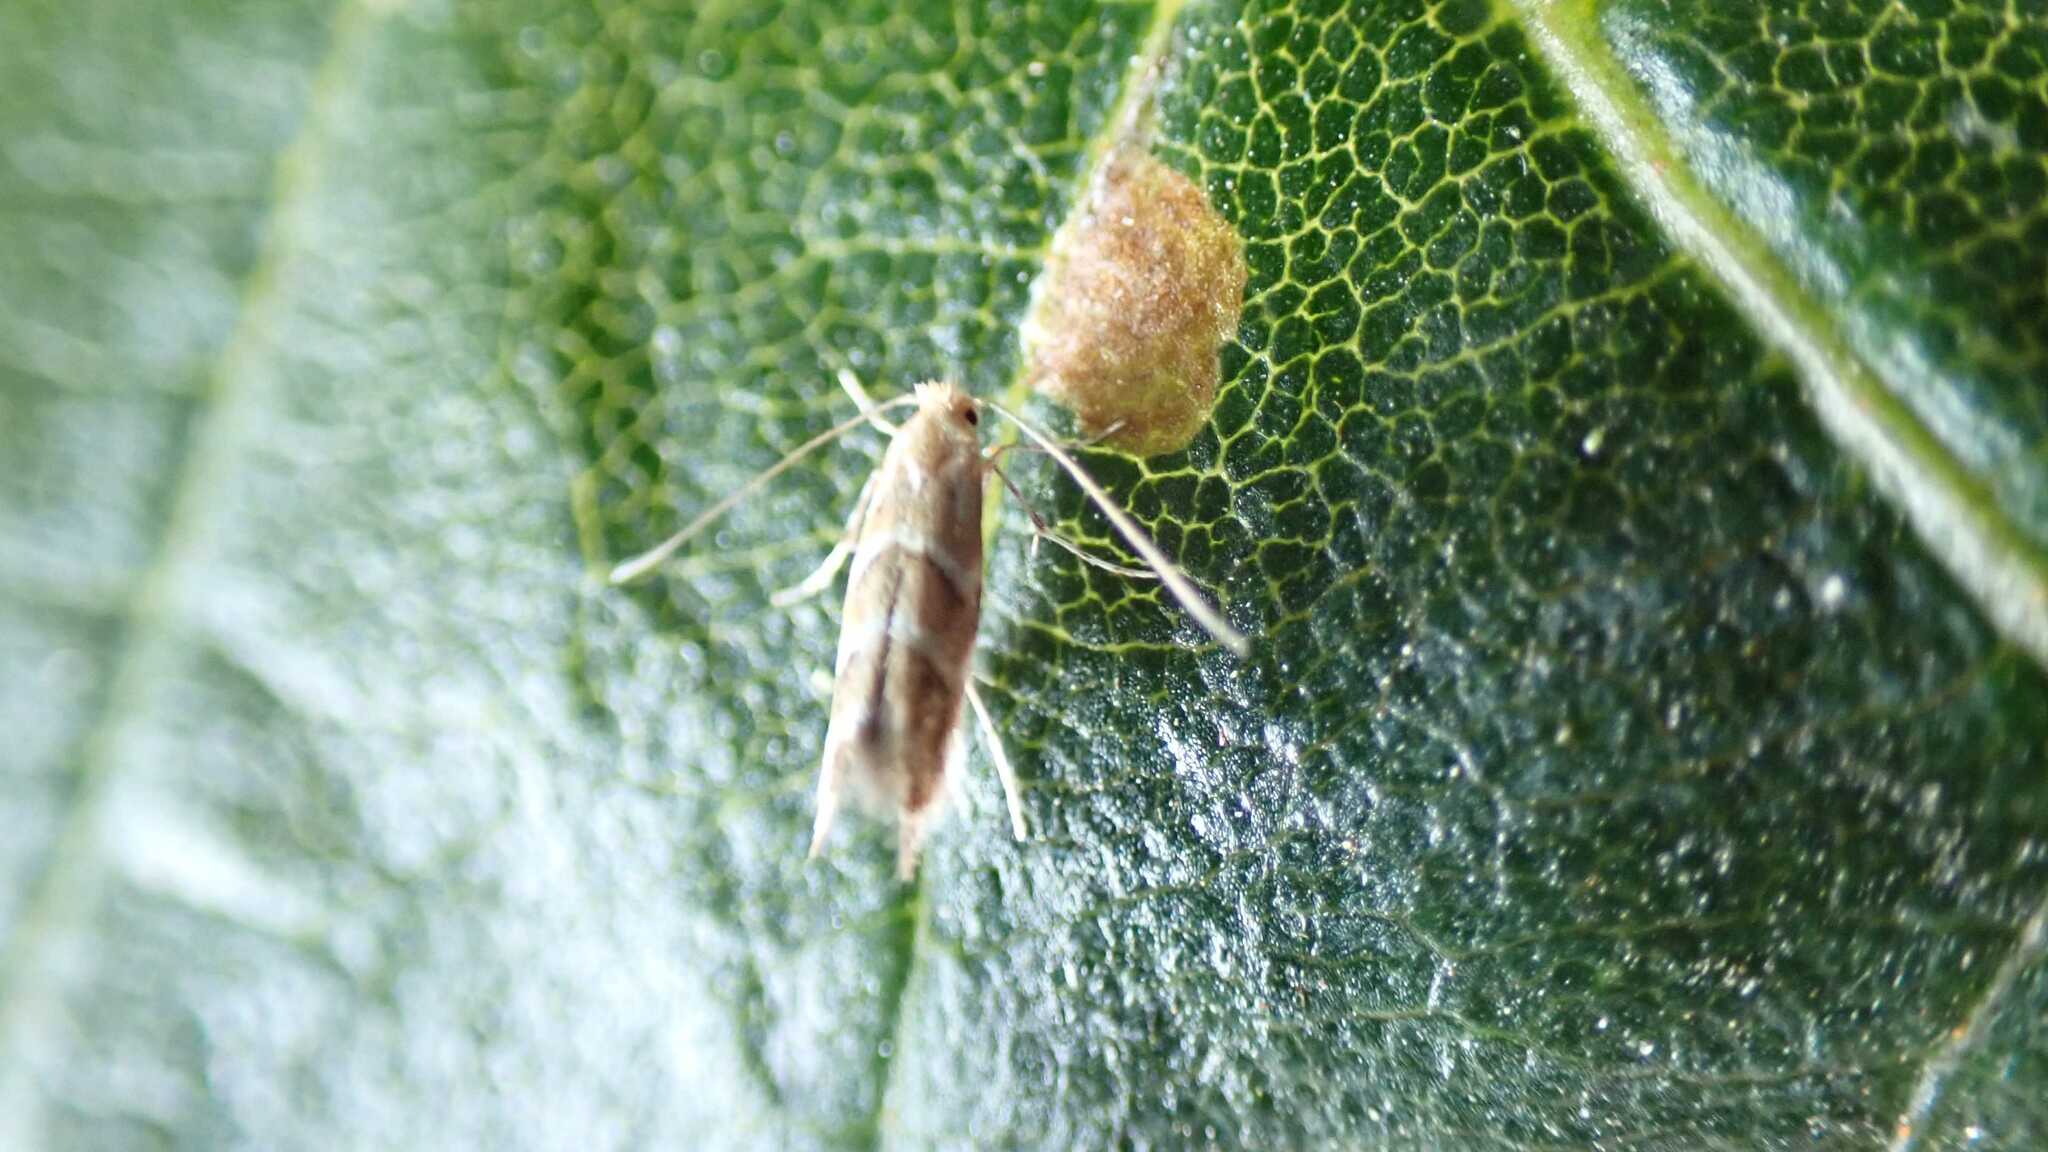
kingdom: Animalia
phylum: Arthropoda
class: Insecta
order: Lepidoptera
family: Gracillariidae
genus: Cameraria
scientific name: Cameraria ohridella
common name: Horse-chestnut leaf-miner
